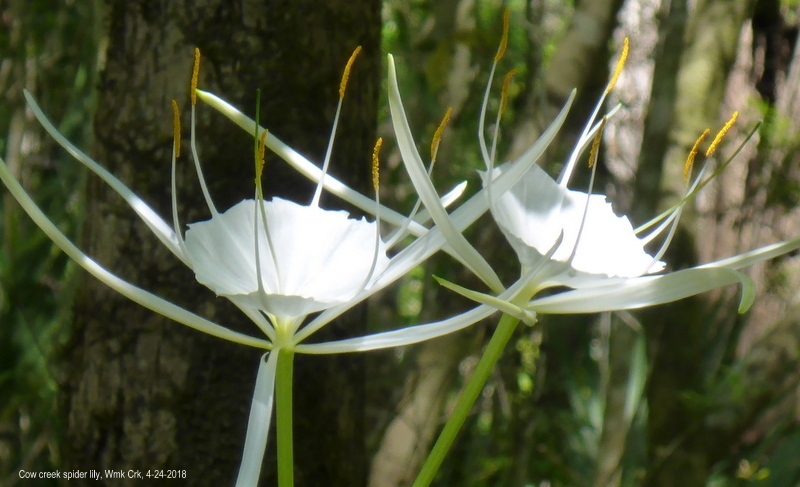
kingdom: Plantae
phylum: Tracheophyta
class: Liliopsida
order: Asparagales
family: Amaryllidaceae
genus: Hymenocallis
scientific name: Hymenocallis franklinensis
